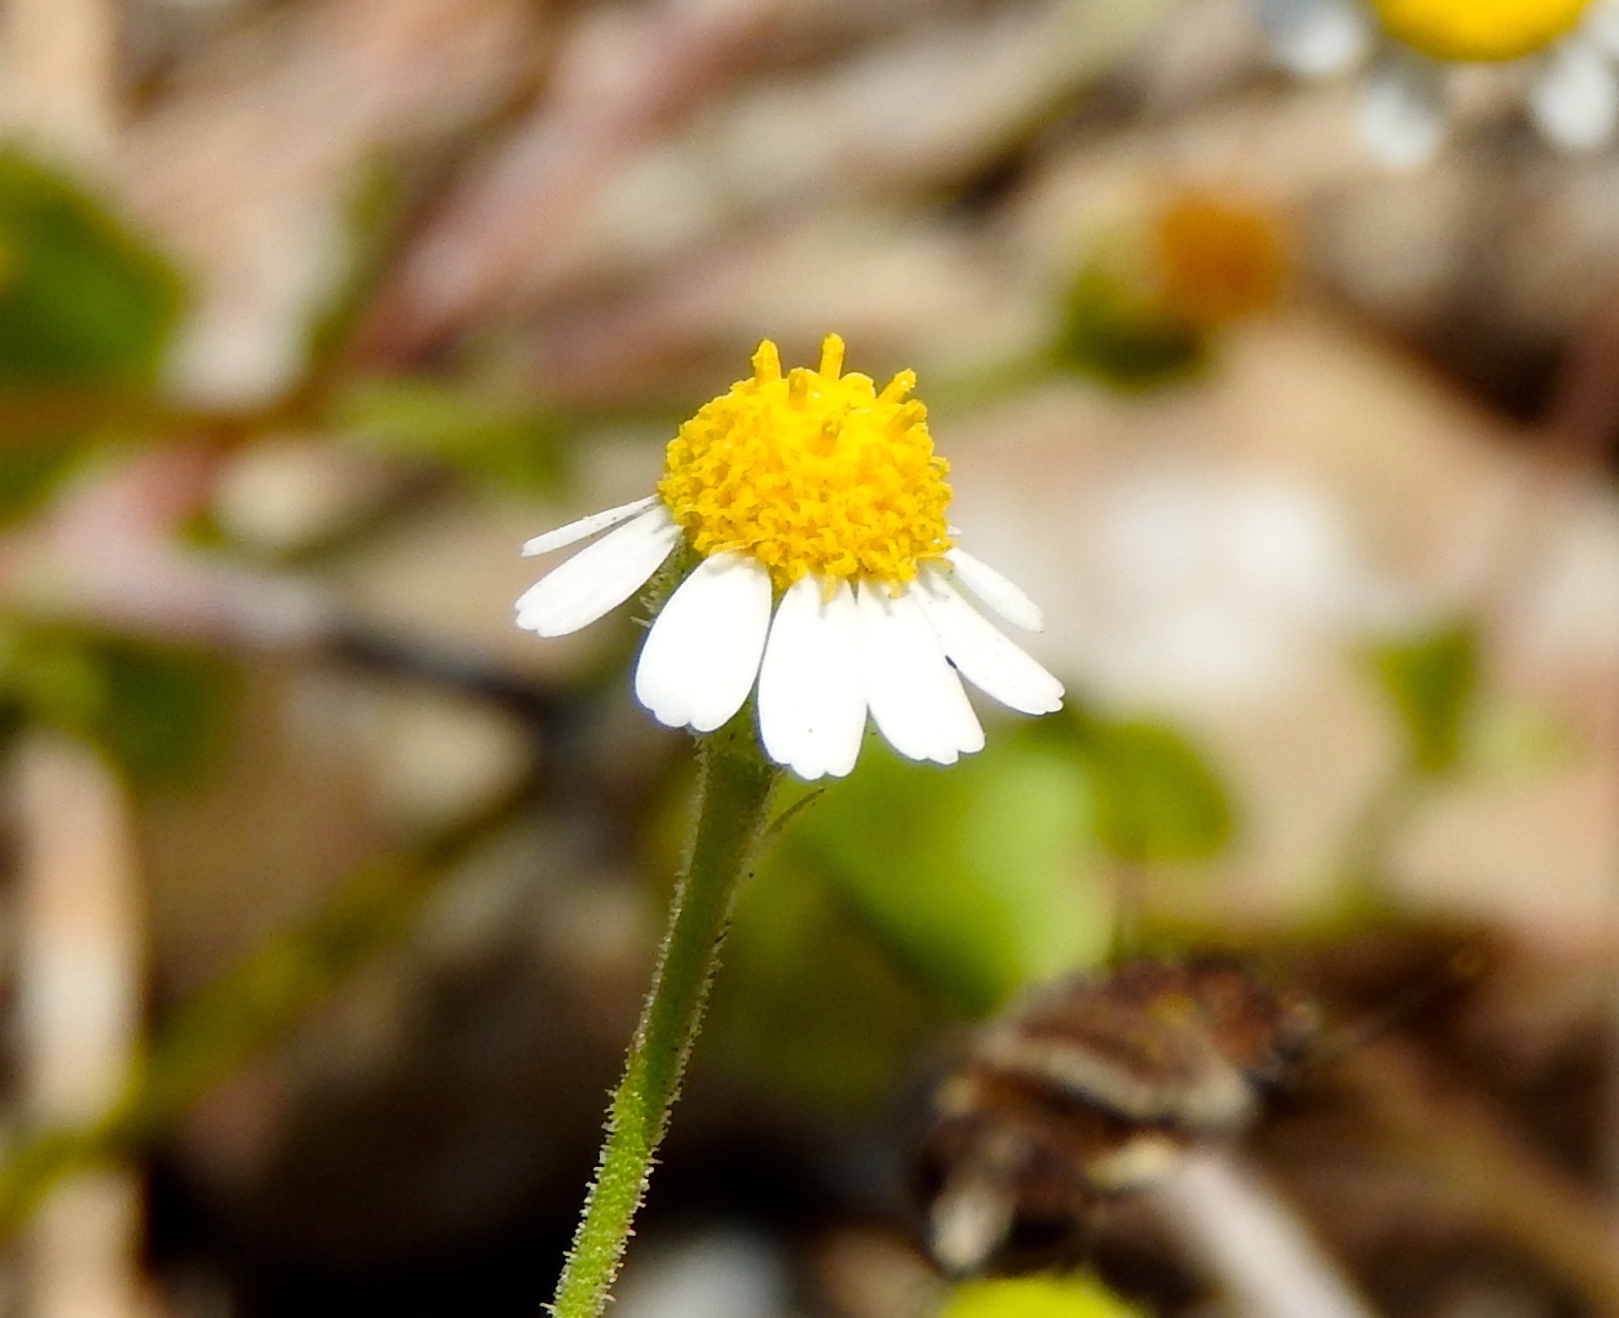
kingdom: Plantae
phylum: Tracheophyta
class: Magnoliopsida
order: Asterales
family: Asteraceae
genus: Galinsogeopsis
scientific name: Galinsogeopsis spilanthoides
